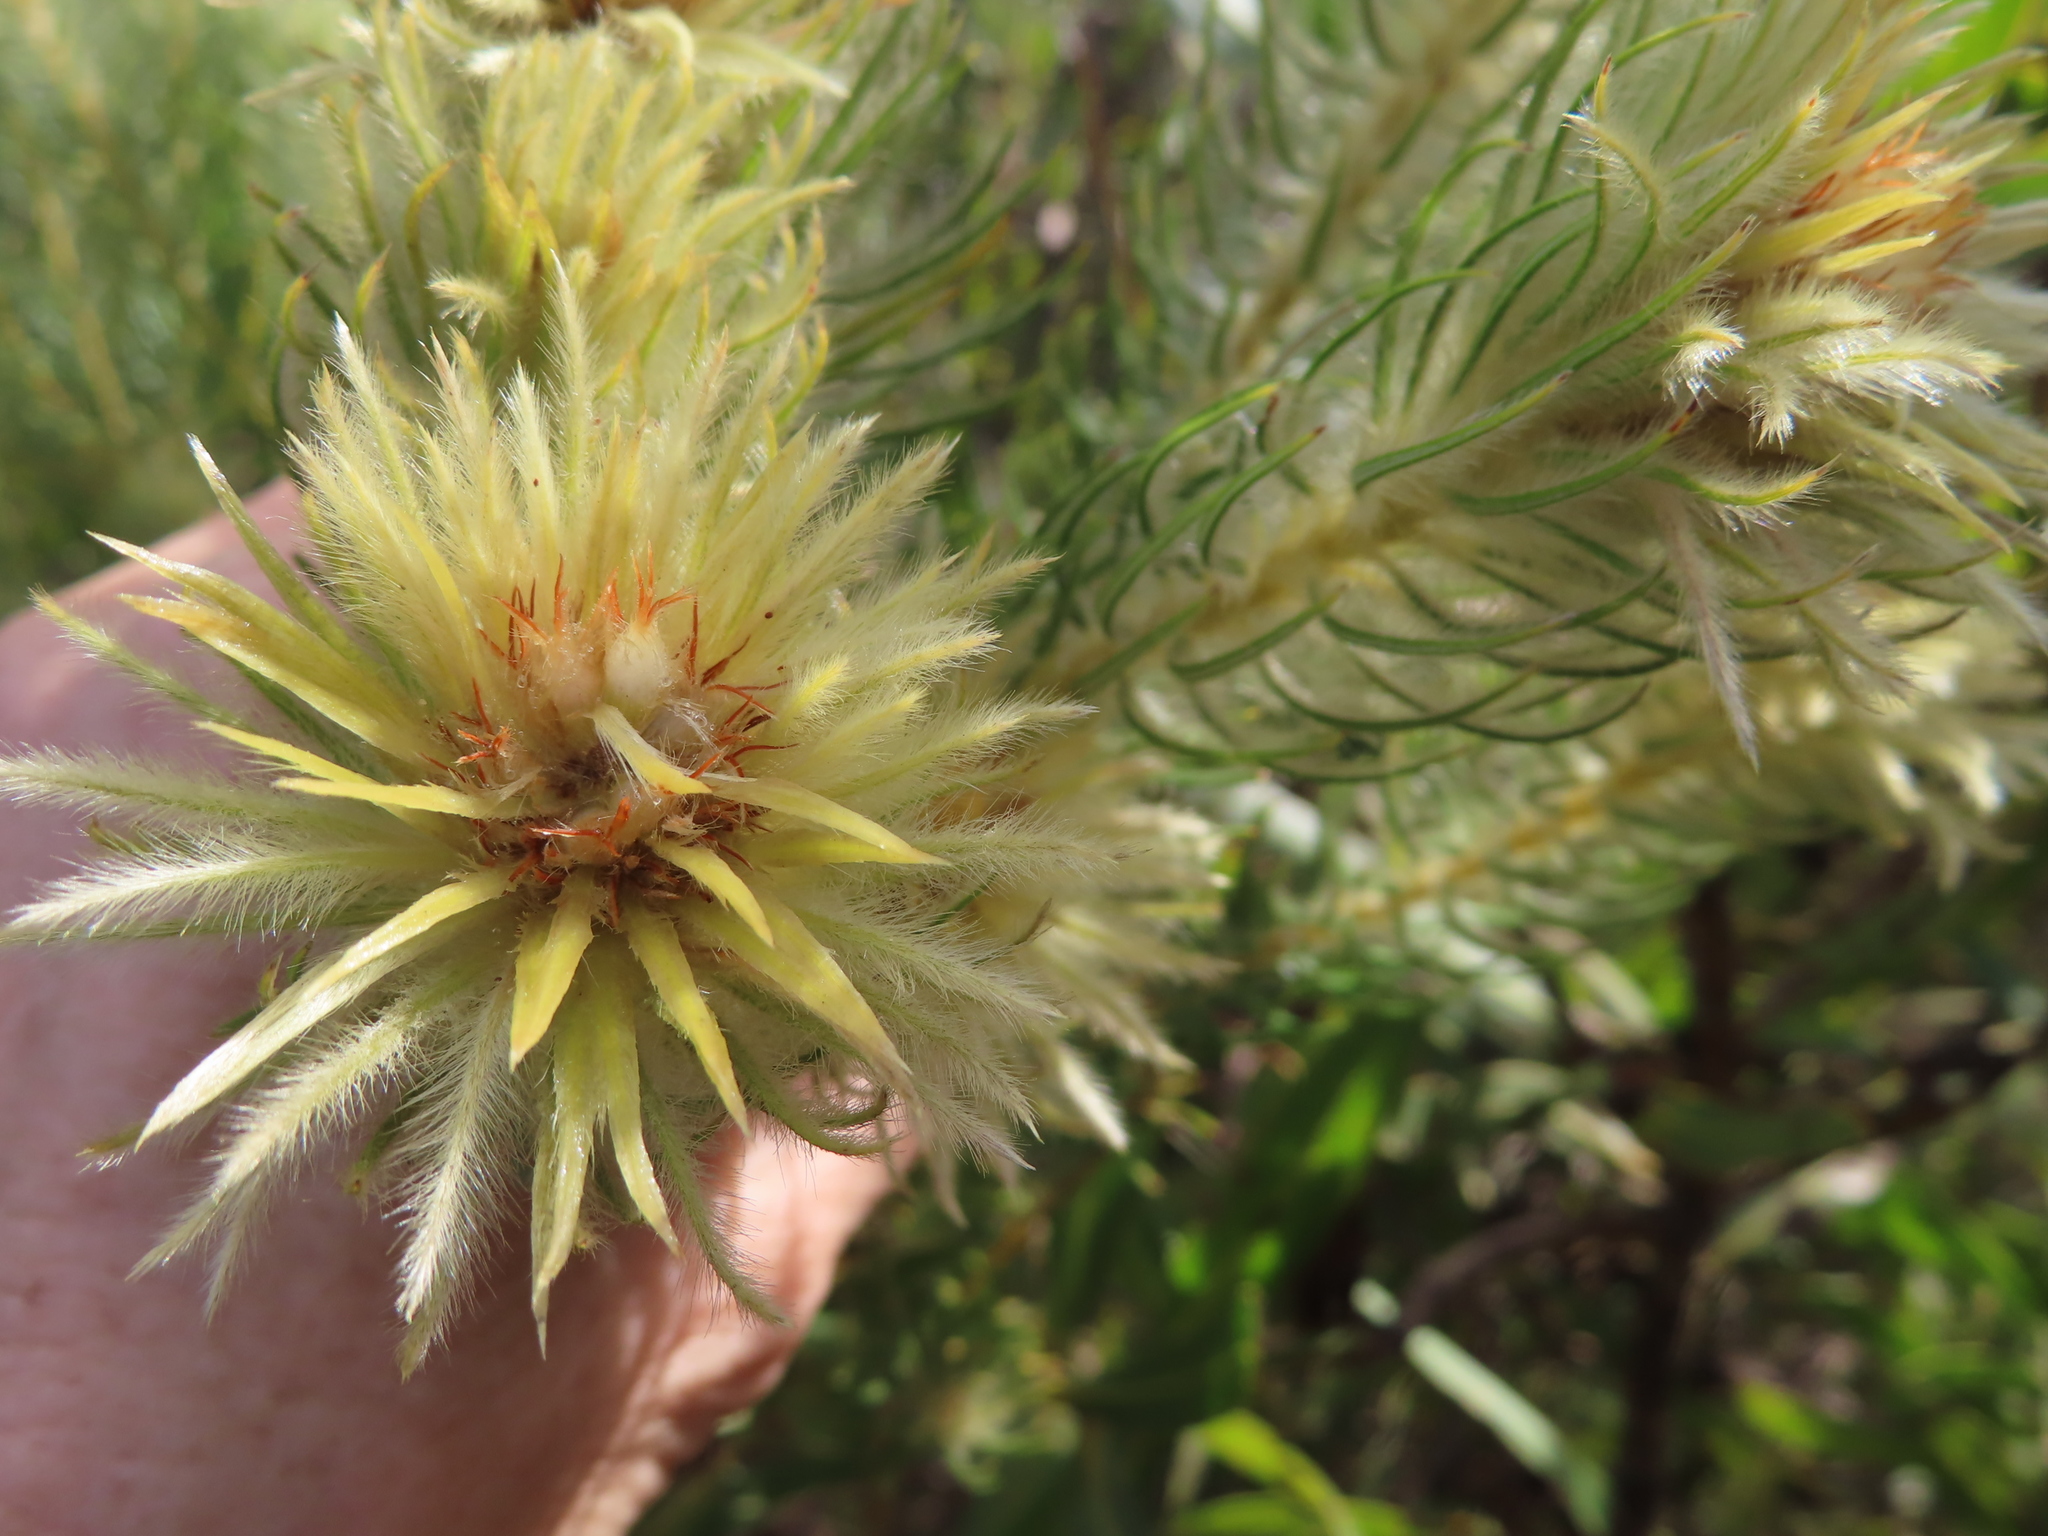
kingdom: Plantae
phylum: Tracheophyta
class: Magnoliopsida
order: Rosales
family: Rhamnaceae
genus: Phylica
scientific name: Phylica pubescens
